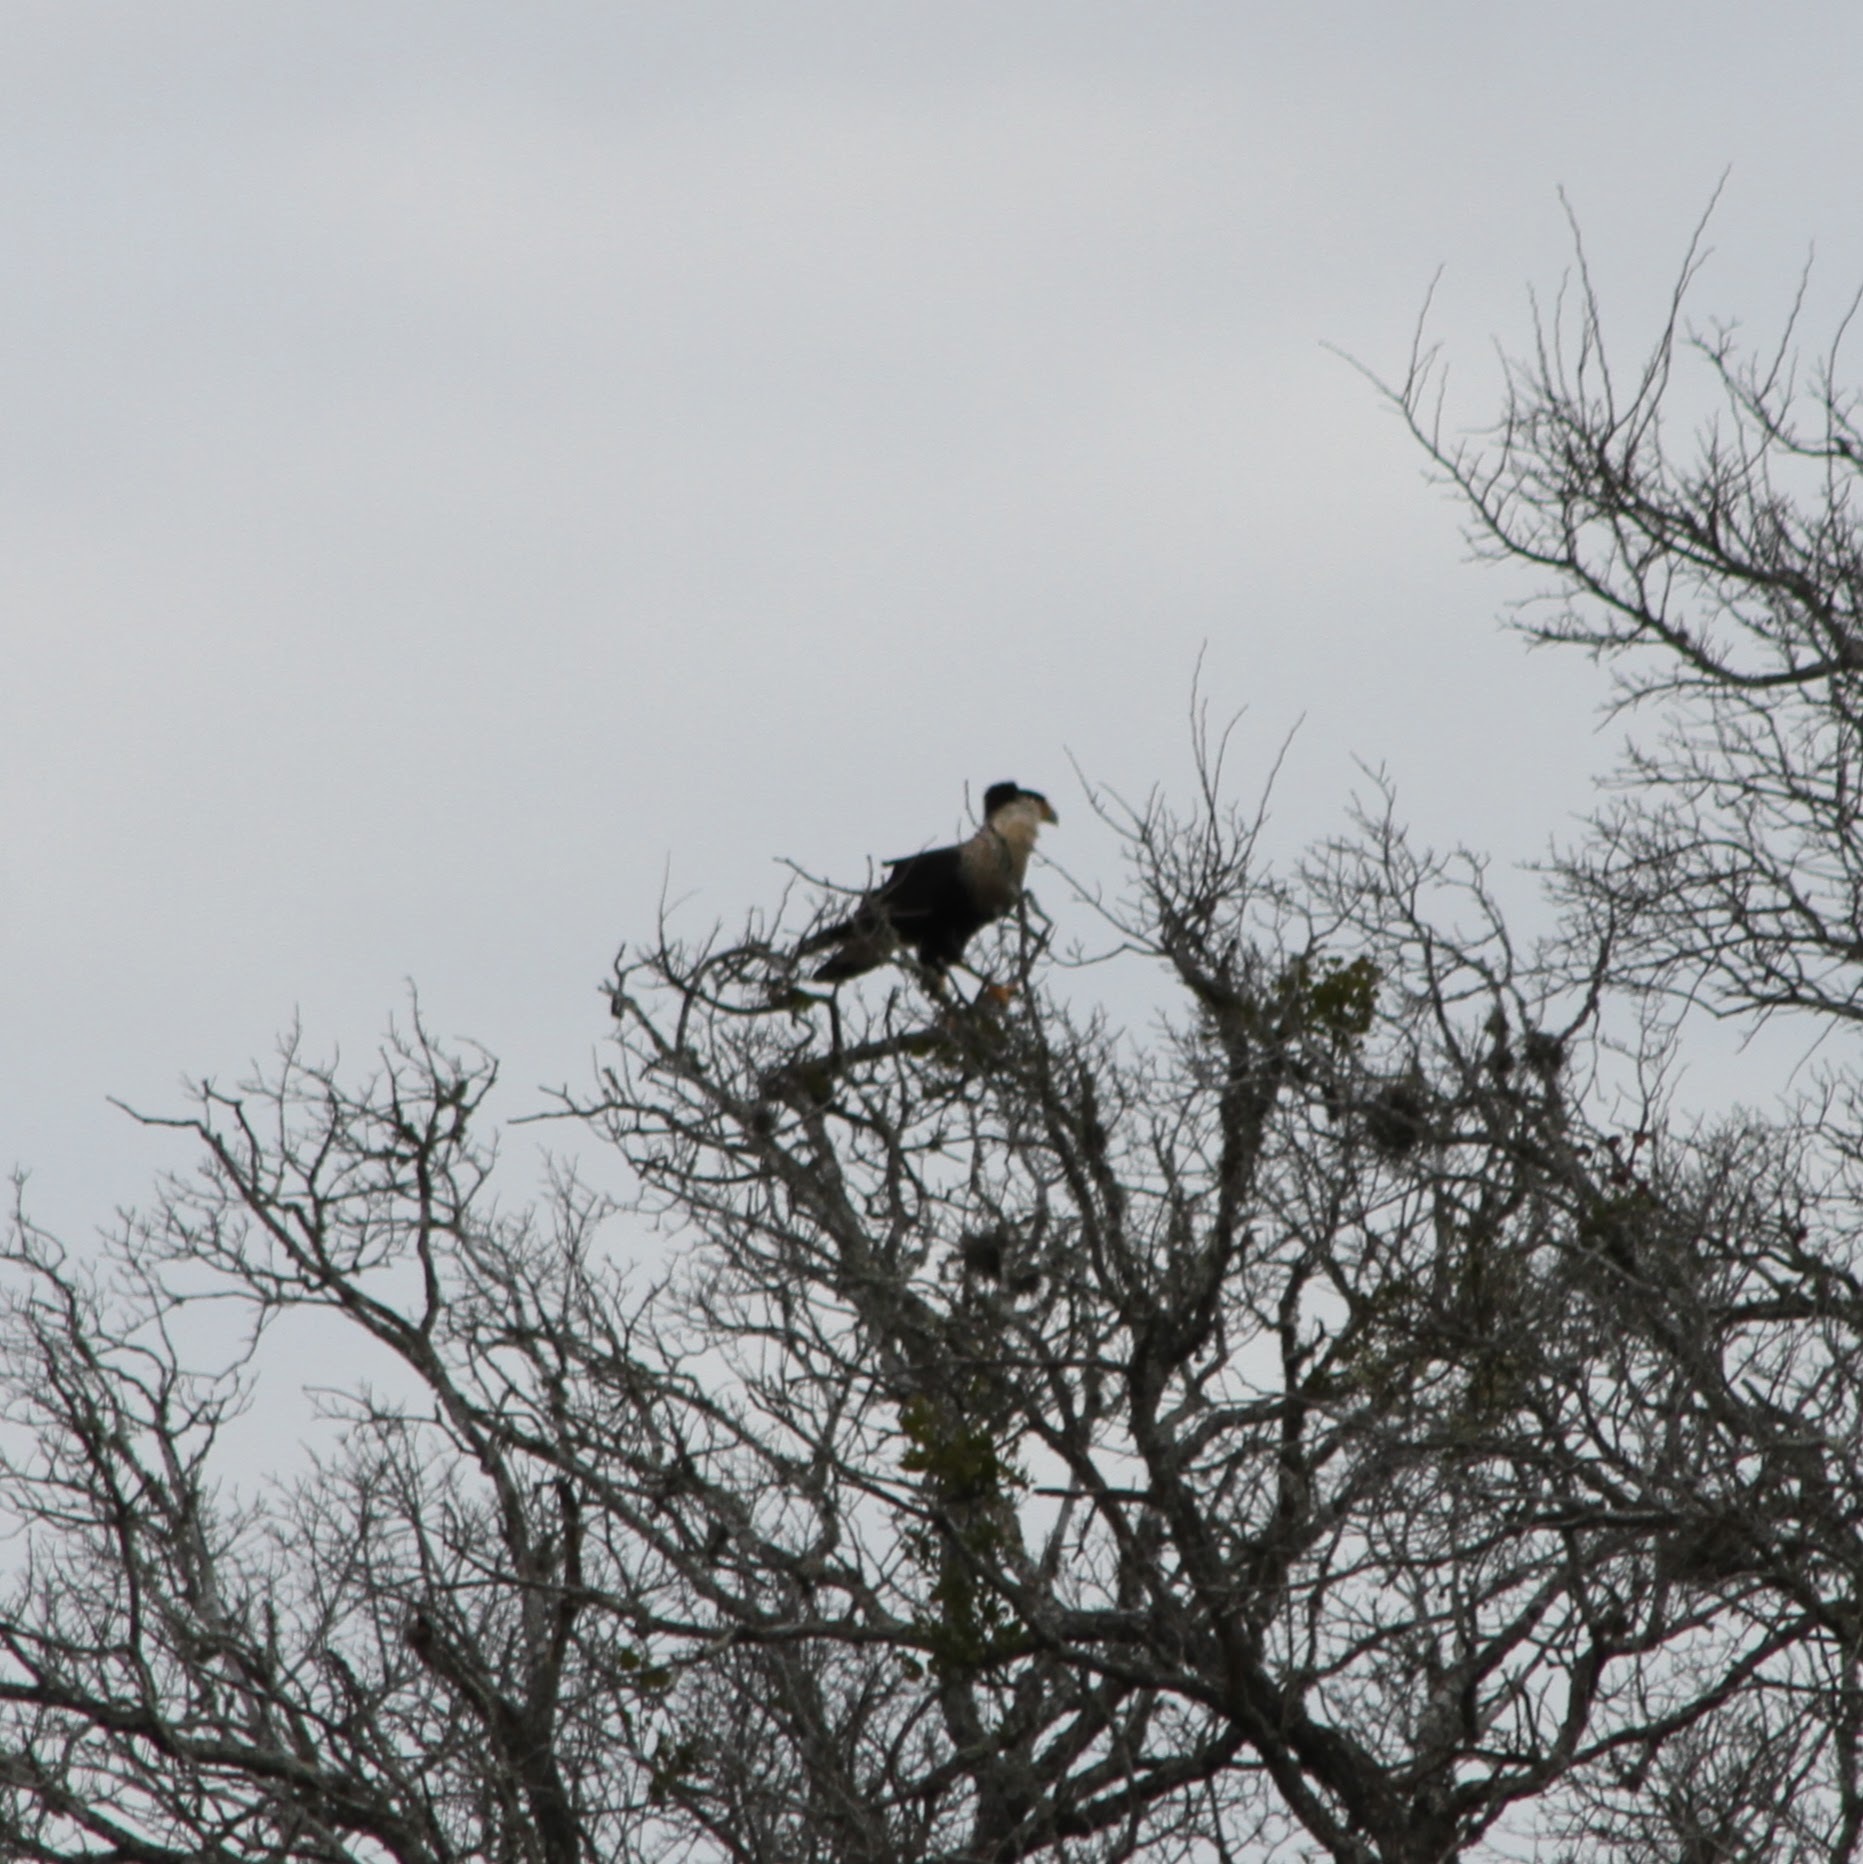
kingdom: Animalia
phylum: Chordata
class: Aves
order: Falconiformes
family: Falconidae
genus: Caracara
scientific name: Caracara plancus
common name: Southern caracara
